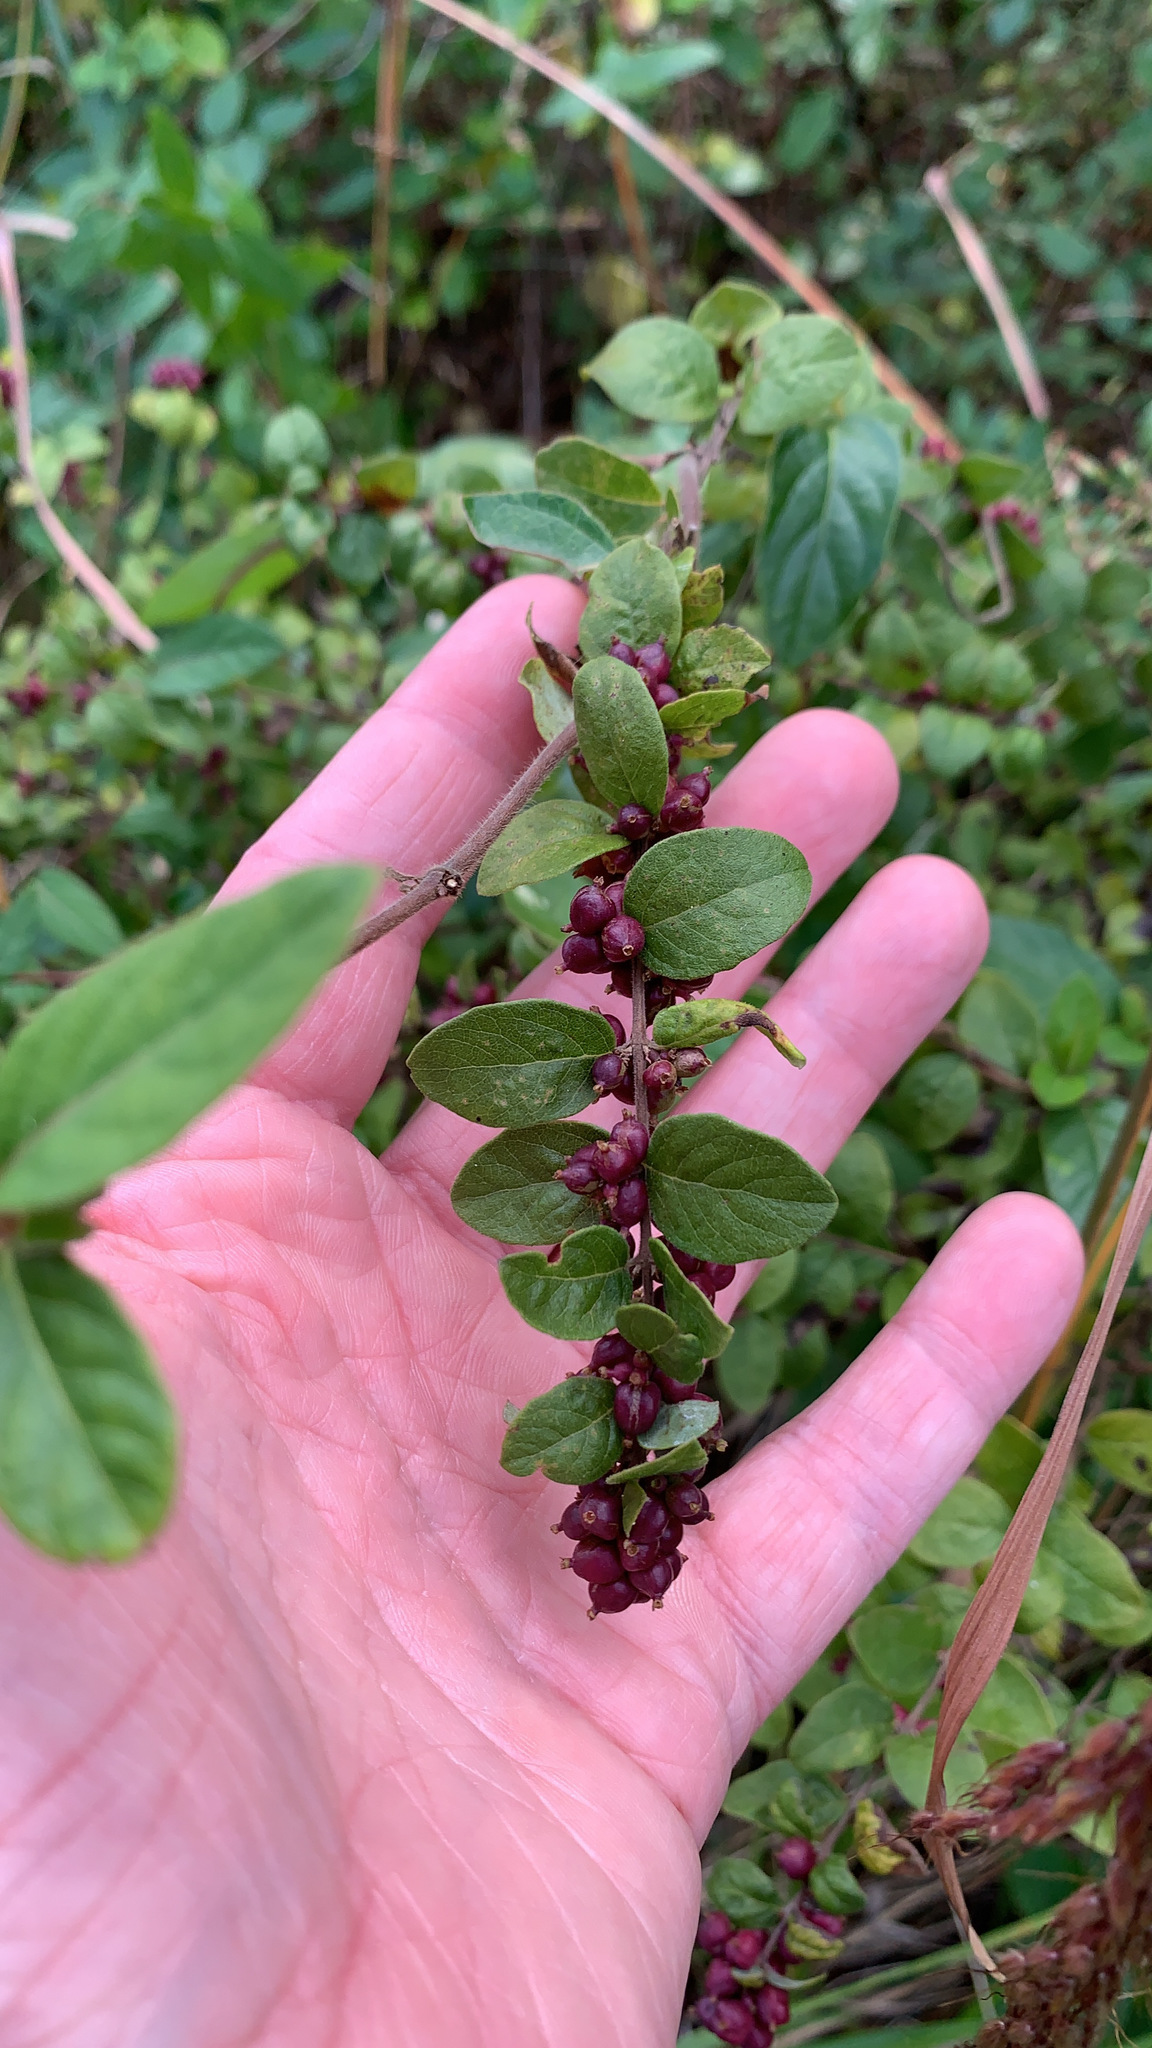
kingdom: Plantae
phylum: Tracheophyta
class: Magnoliopsida
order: Dipsacales
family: Caprifoliaceae
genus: Symphoricarpos
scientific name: Symphoricarpos orbiculatus
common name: Coralberry
